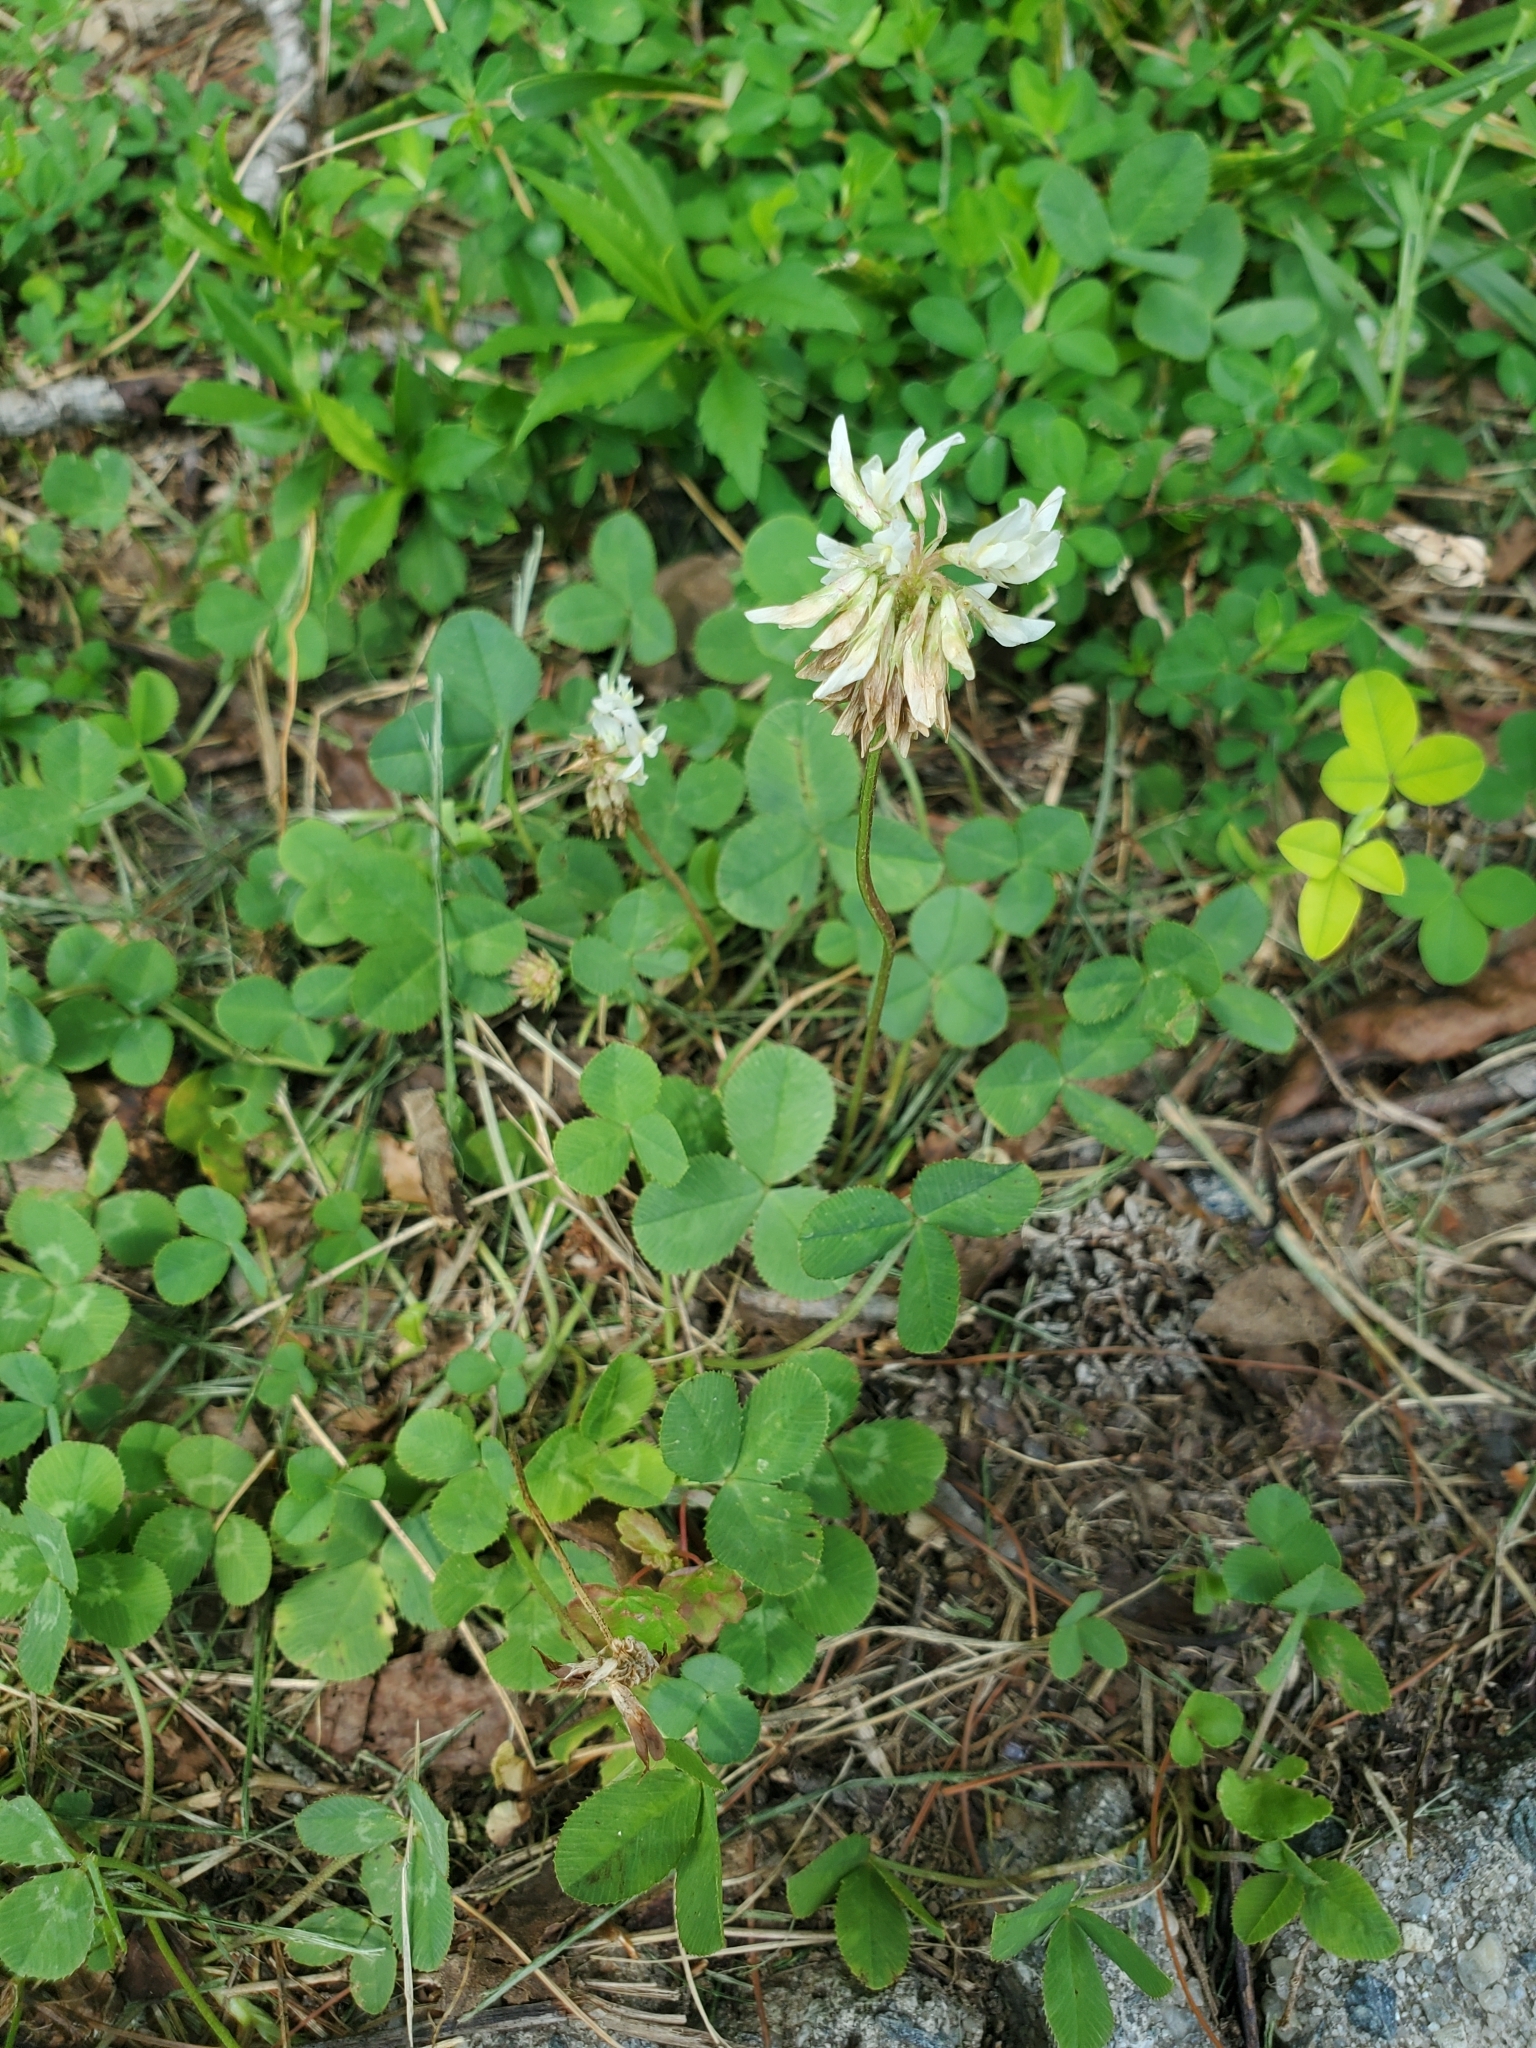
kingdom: Plantae
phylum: Tracheophyta
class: Magnoliopsida
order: Fabales
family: Fabaceae
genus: Trifolium
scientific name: Trifolium repens
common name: White clover
